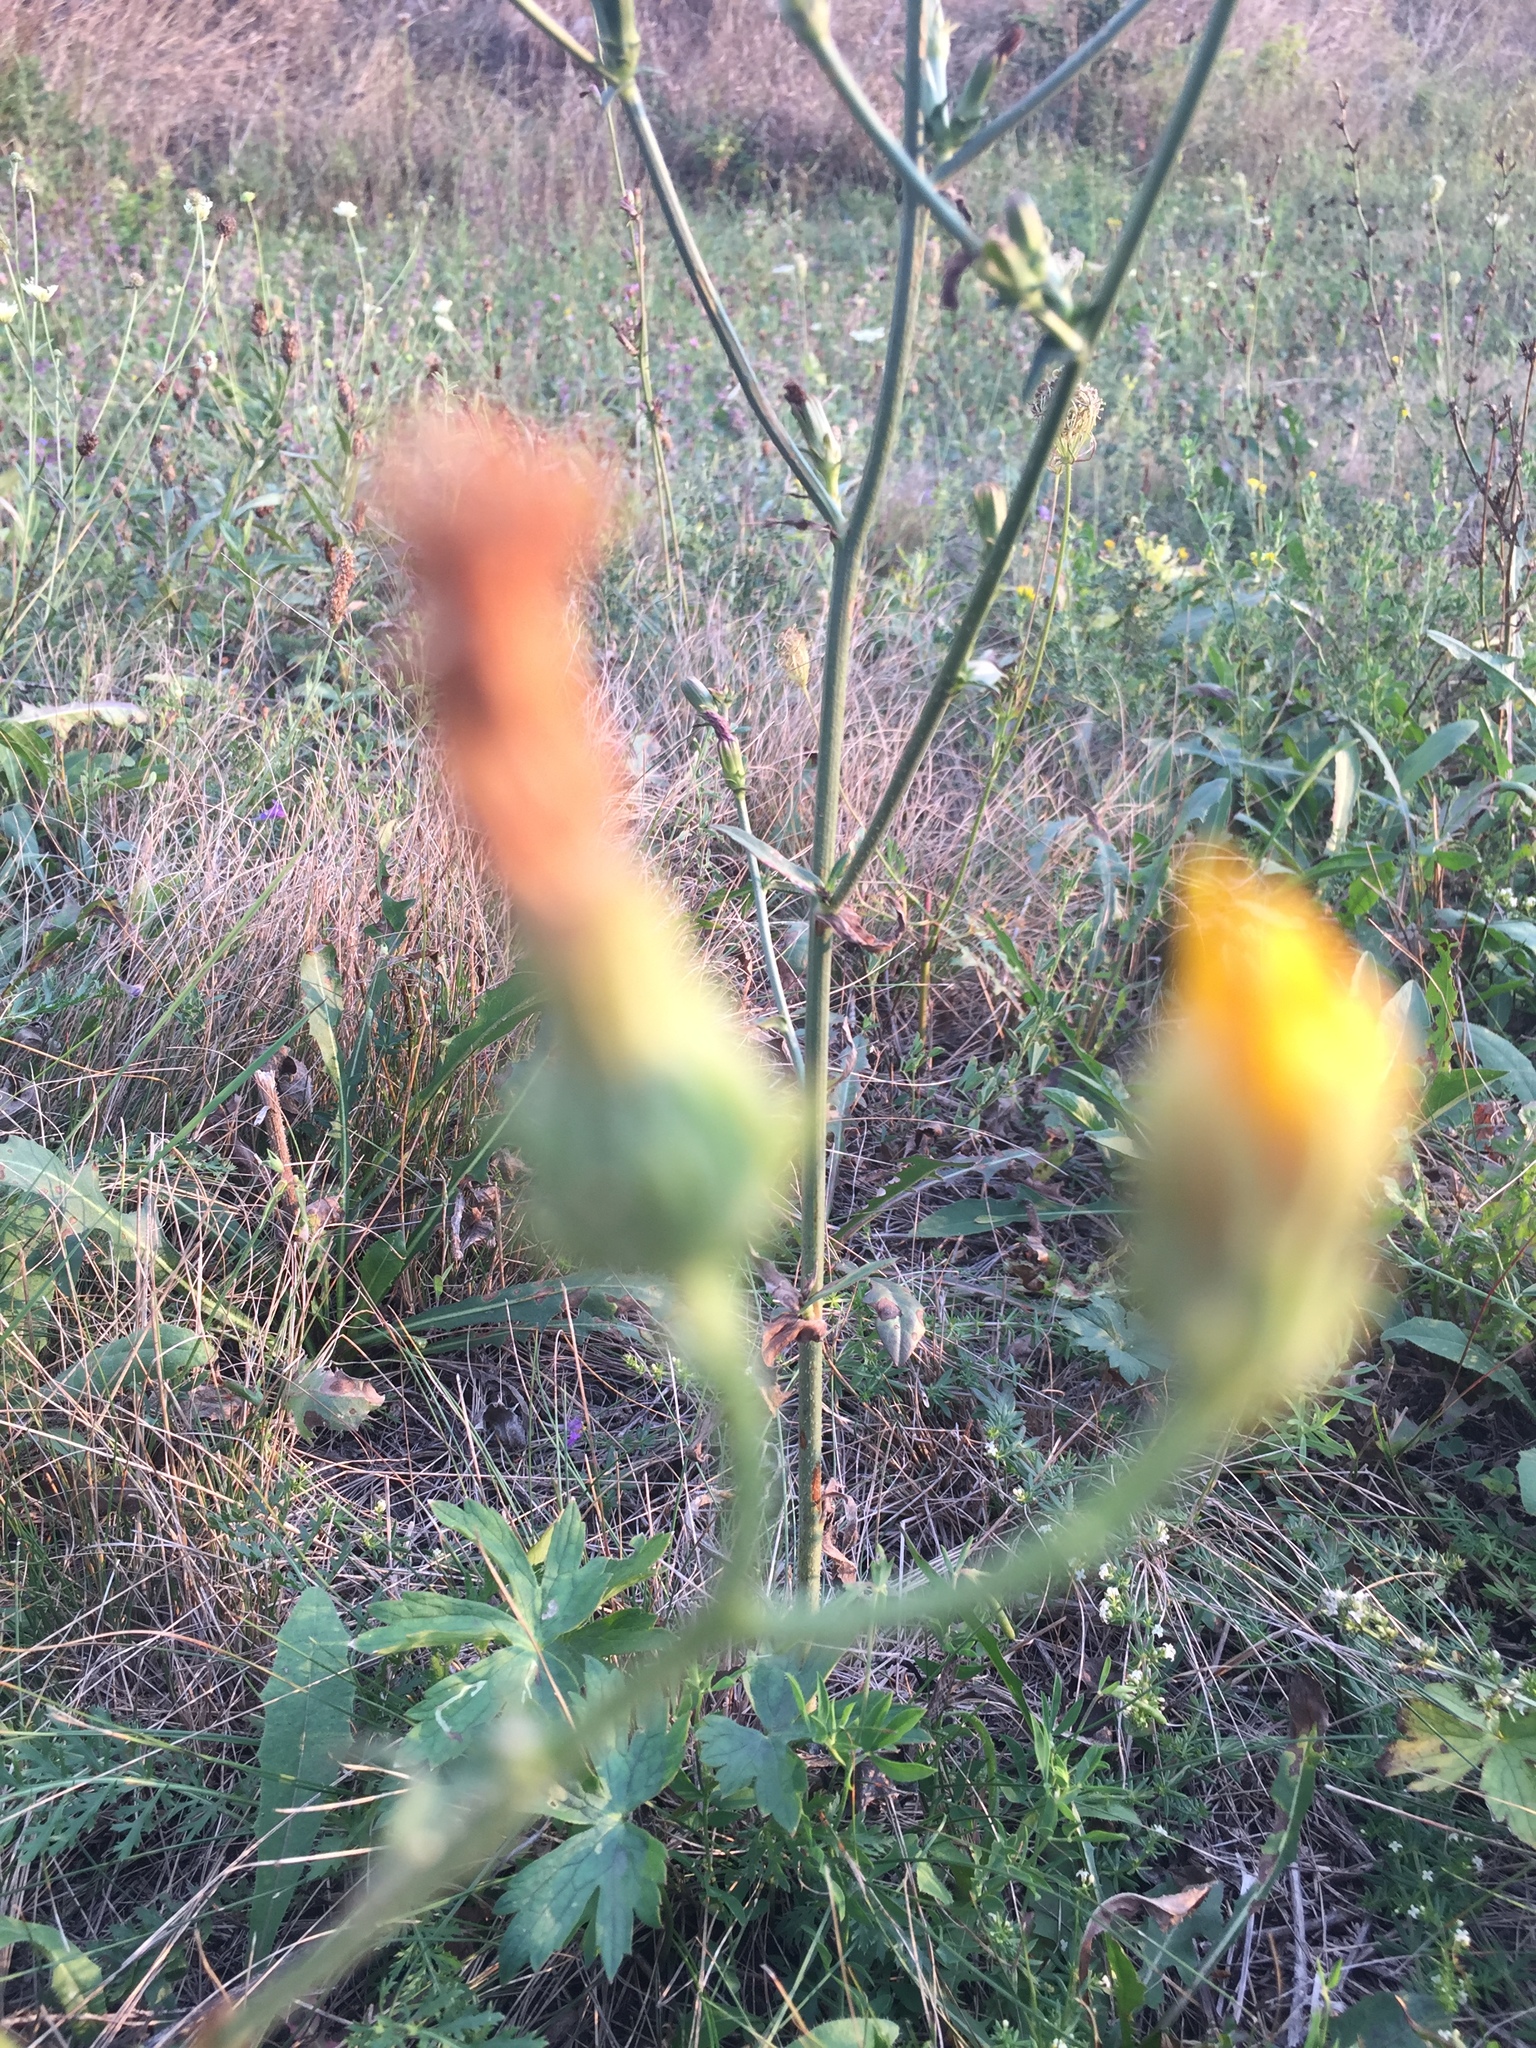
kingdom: Plantae
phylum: Tracheophyta
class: Magnoliopsida
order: Asterales
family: Asteraceae
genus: Picris
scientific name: Picris hieracioides
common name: Hawkweed oxtongue
